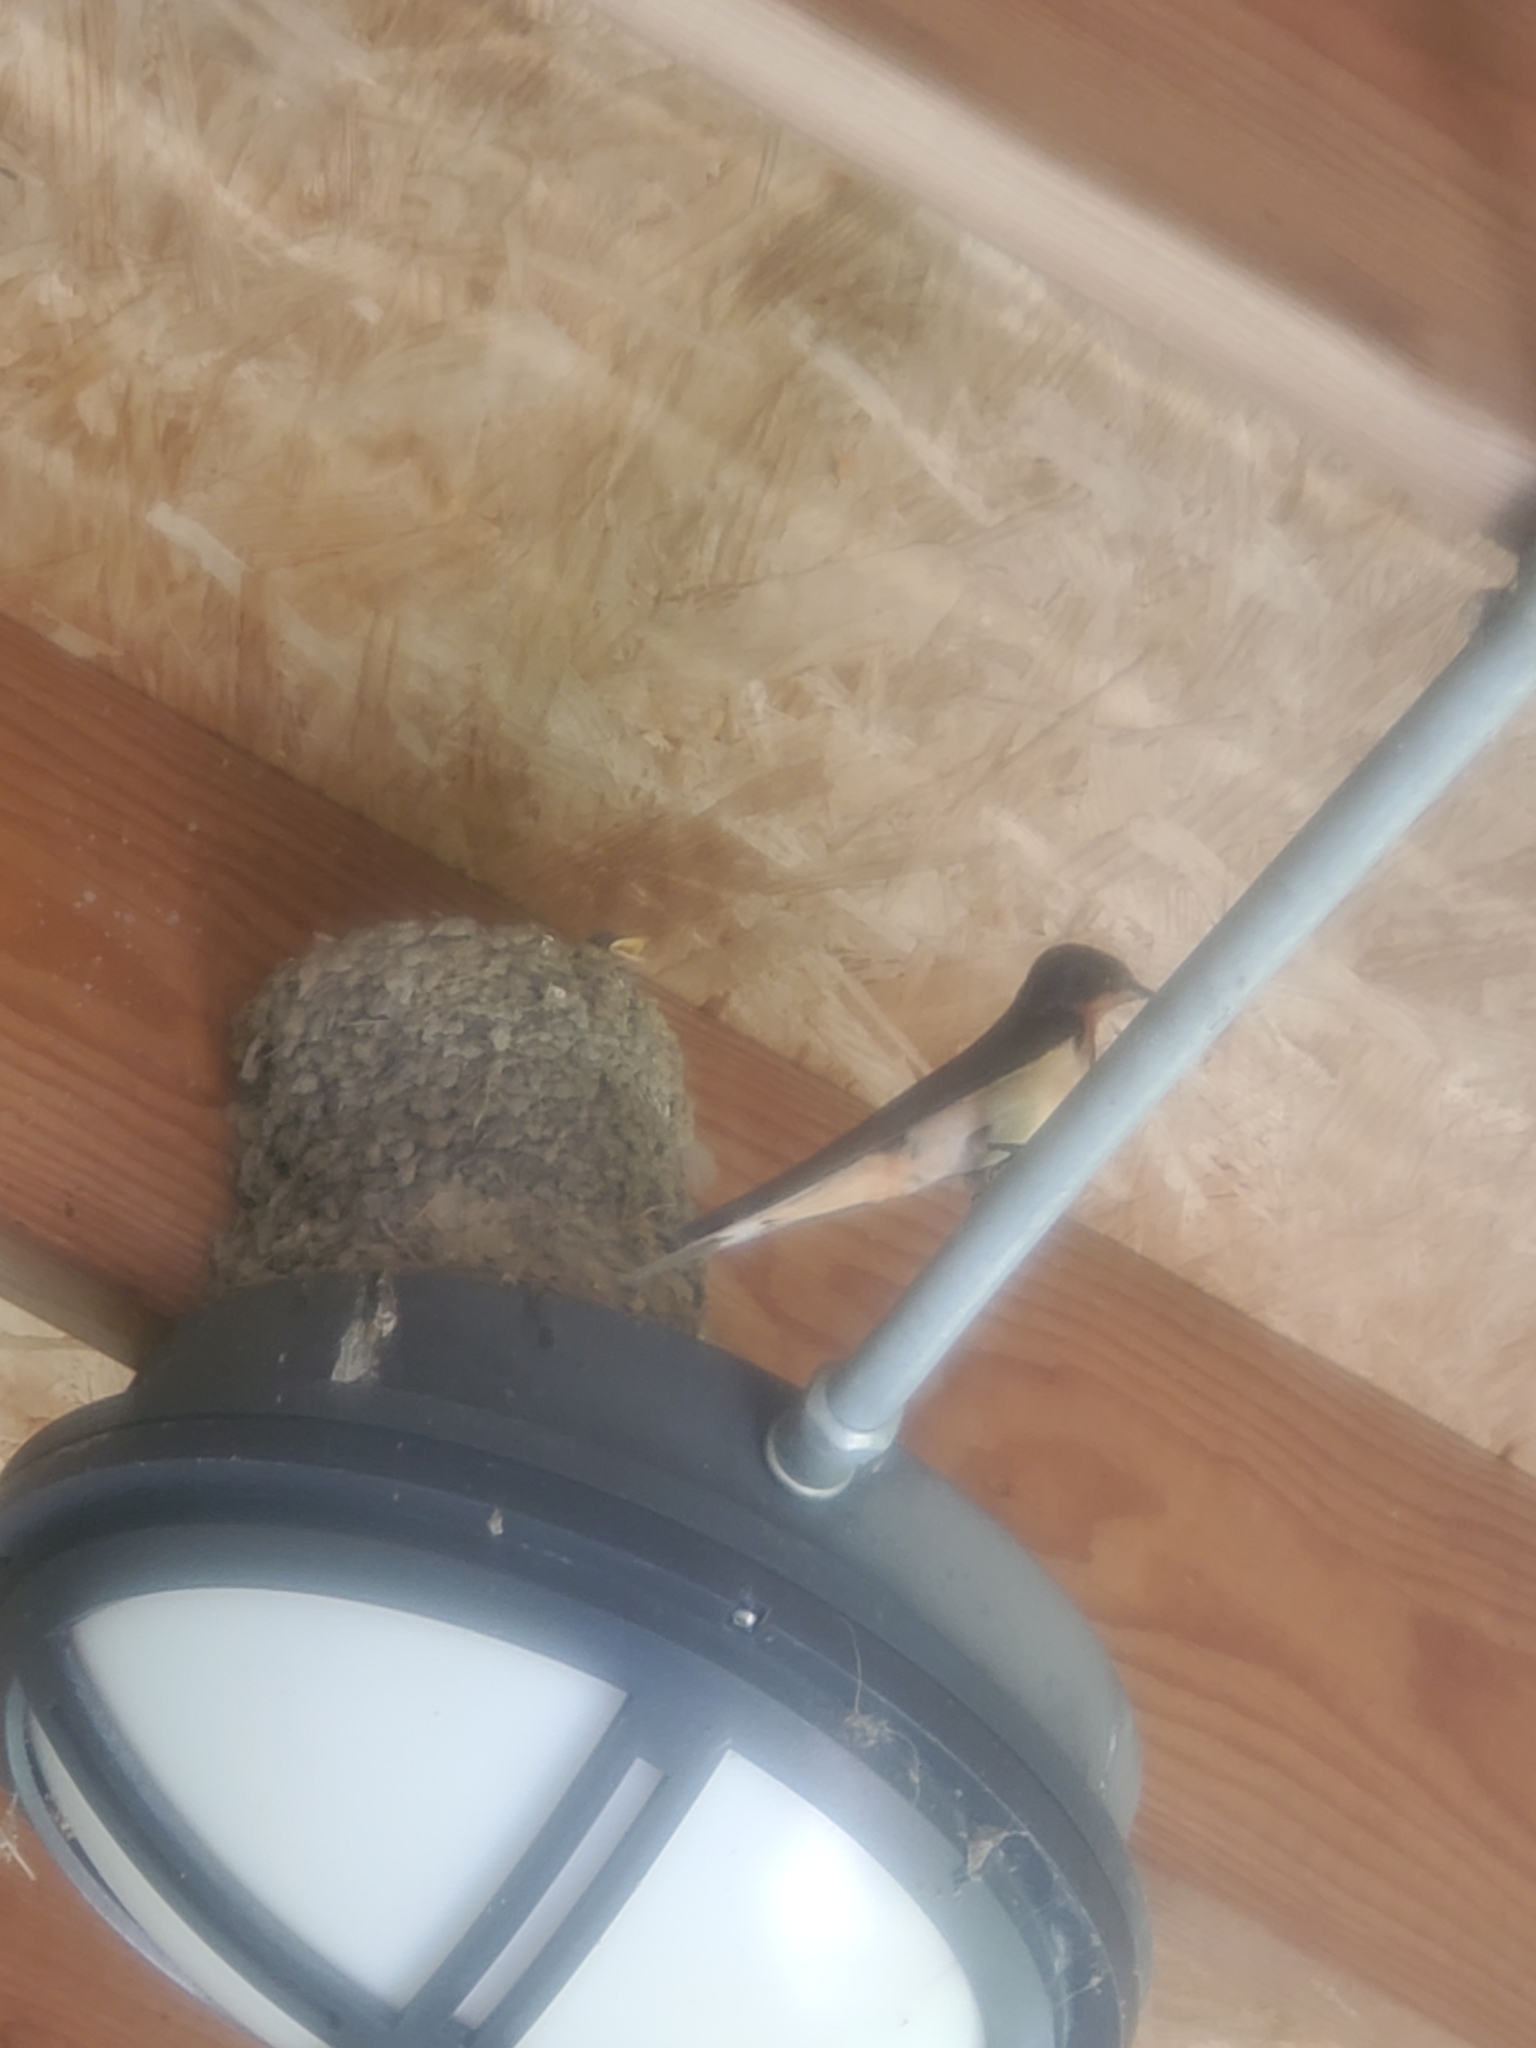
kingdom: Animalia
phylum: Chordata
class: Aves
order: Passeriformes
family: Hirundinidae
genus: Hirundo
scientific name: Hirundo rustica
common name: Barn swallow
